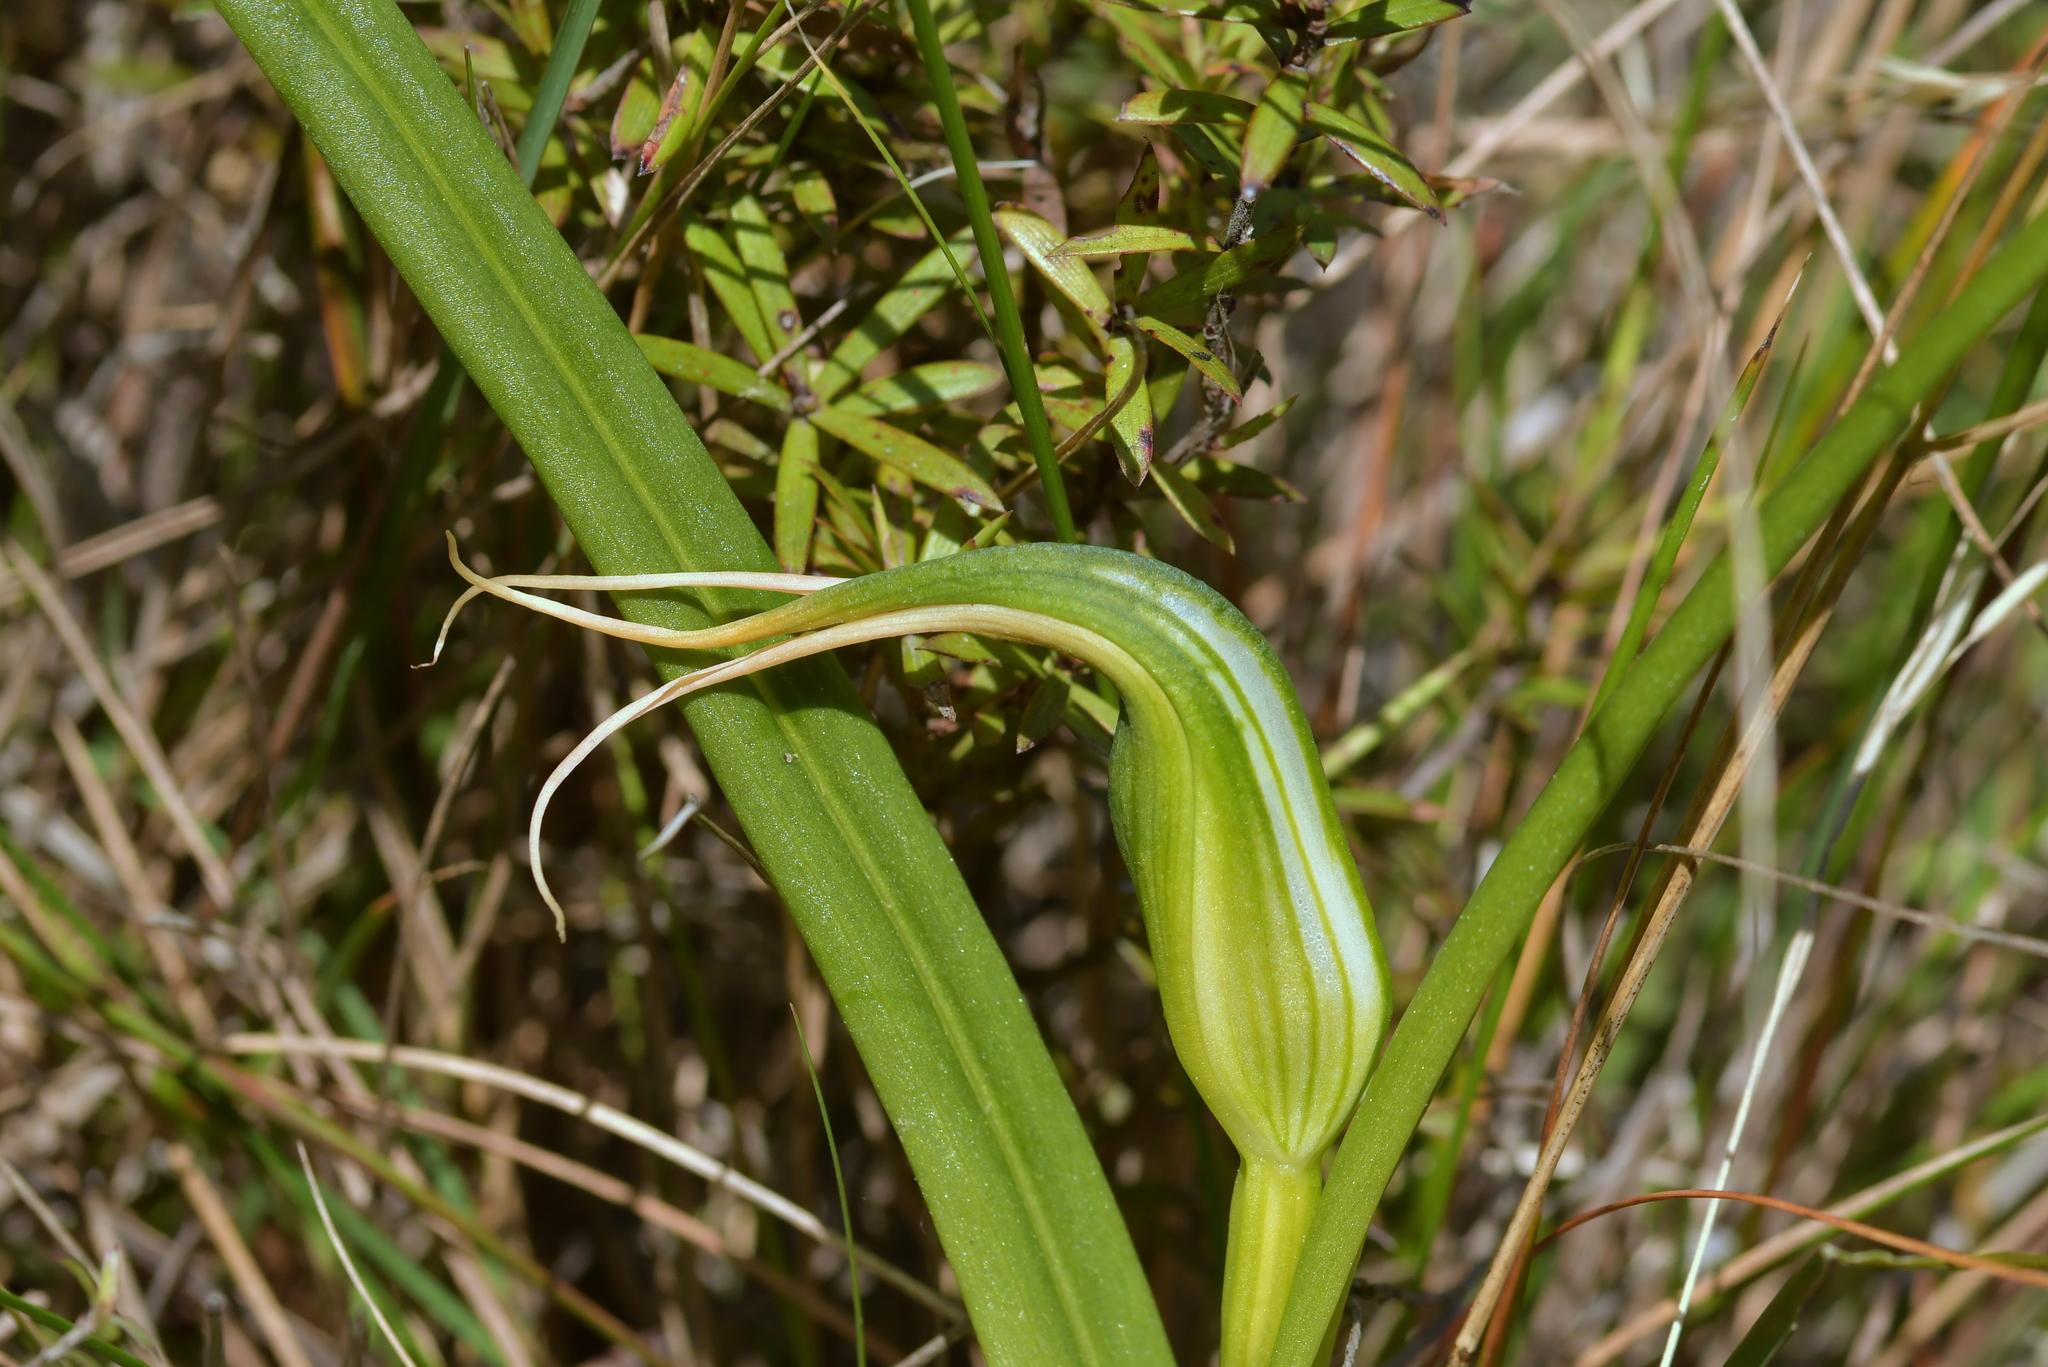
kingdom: Plantae
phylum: Tracheophyta
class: Liliopsida
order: Asparagales
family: Orchidaceae
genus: Pterostylis
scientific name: Pterostylis banksii
